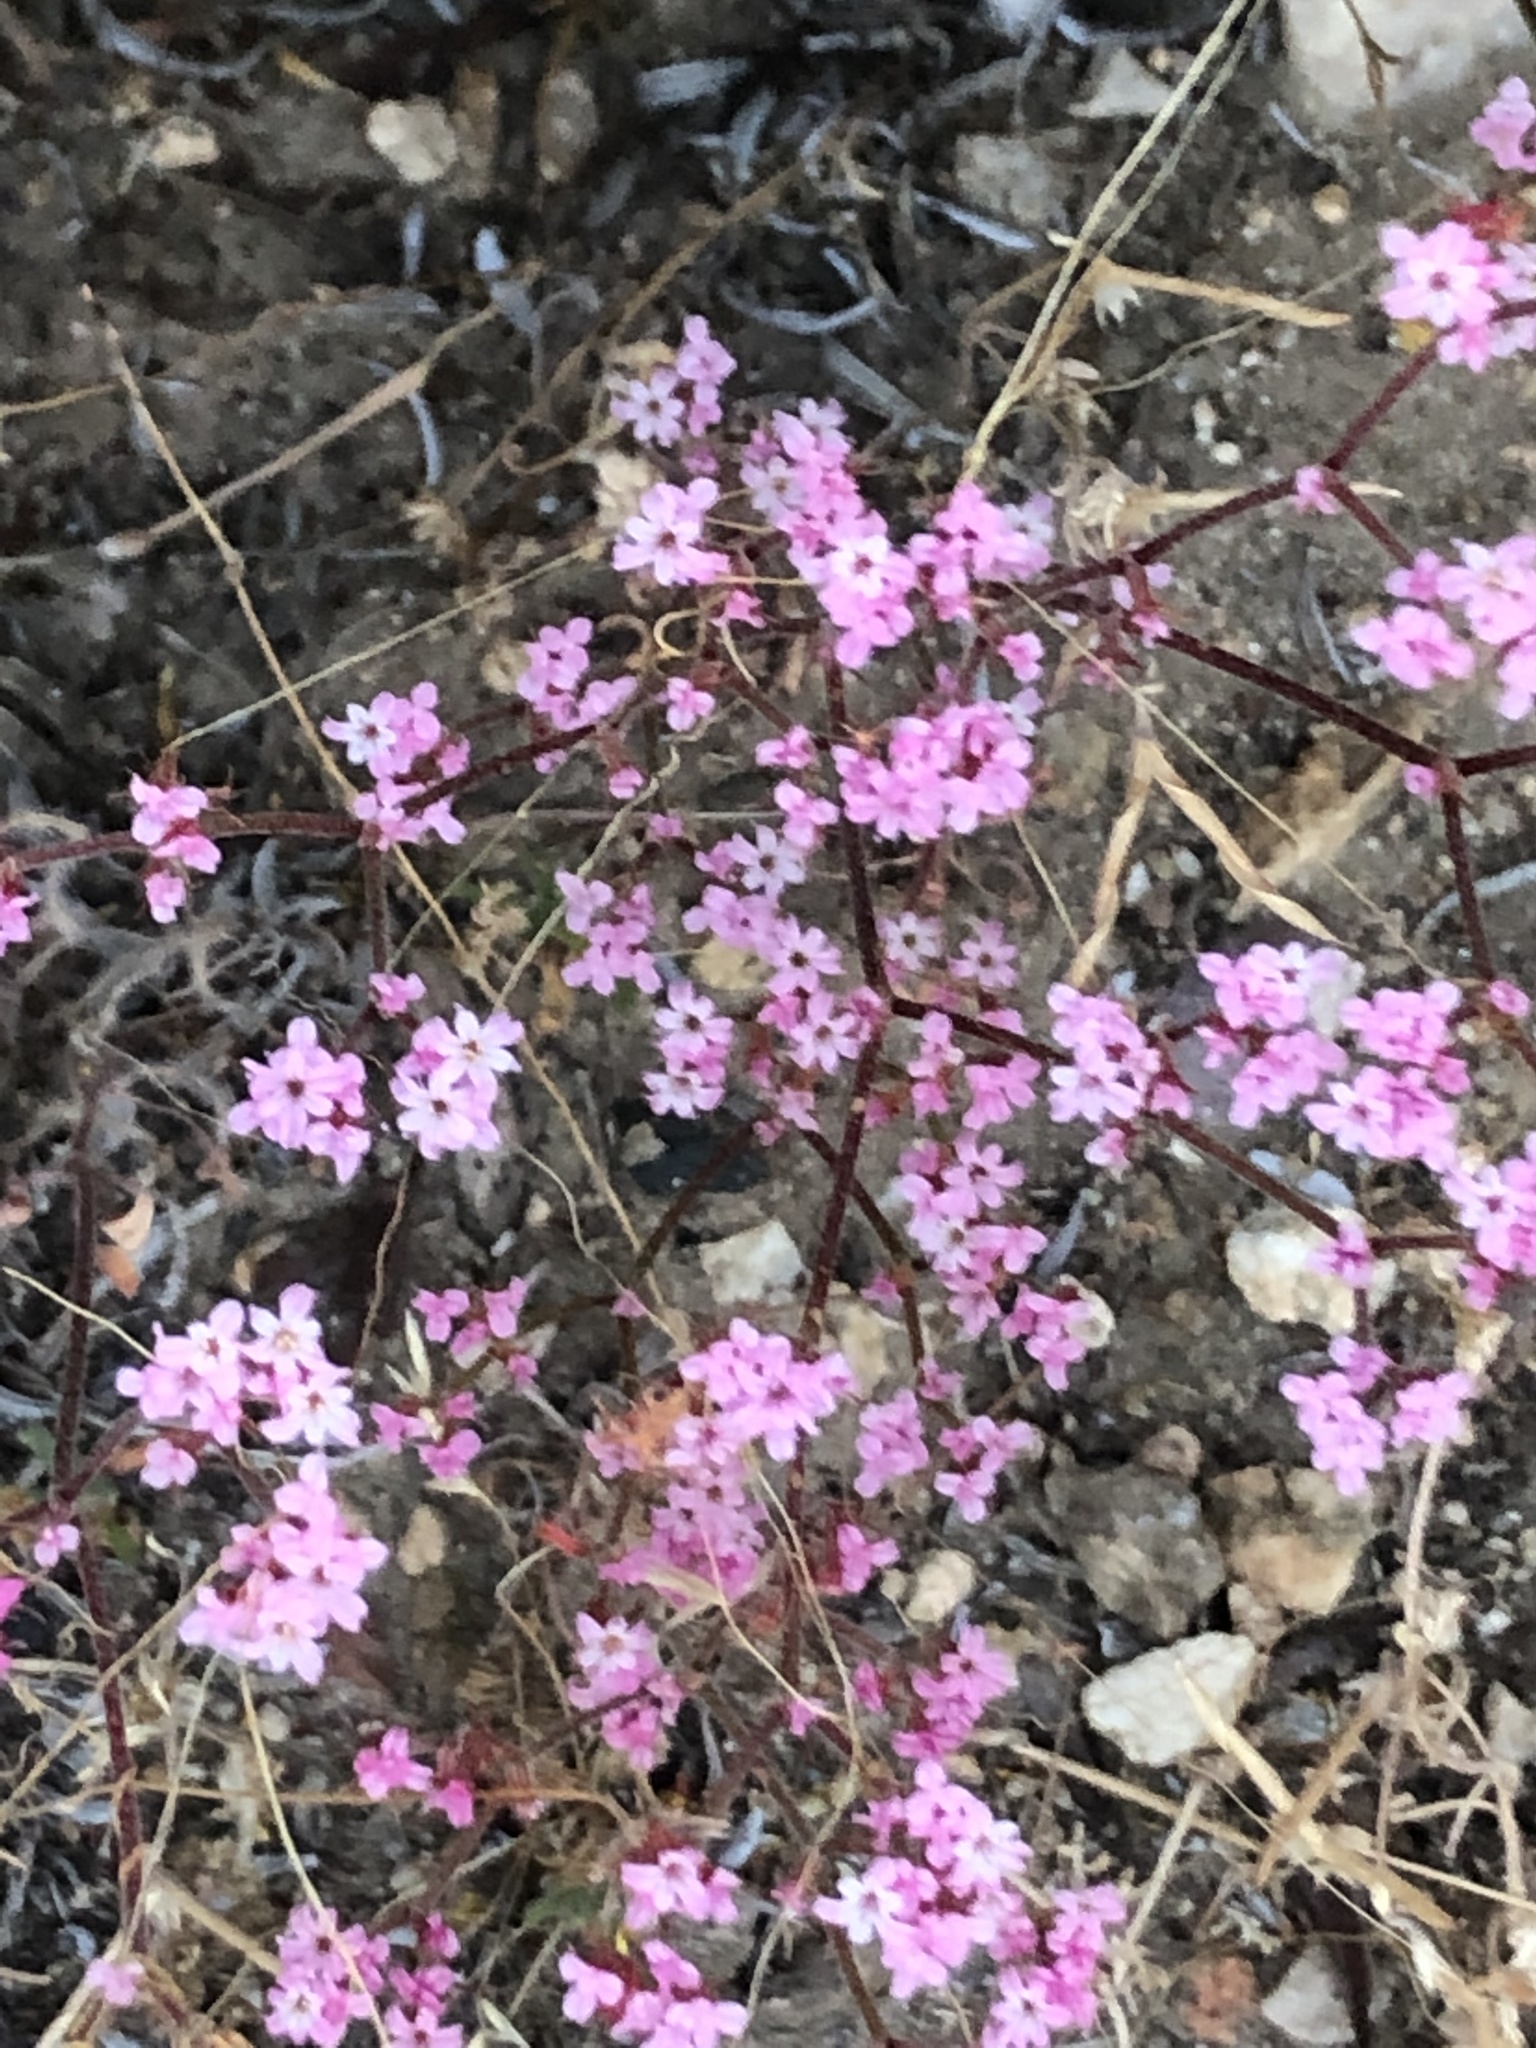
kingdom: Plantae
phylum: Tracheophyta
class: Magnoliopsida
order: Caryophyllales
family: Polygonaceae
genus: Chorizanthe
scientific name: Chorizanthe staticoides
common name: Turkish rugging
